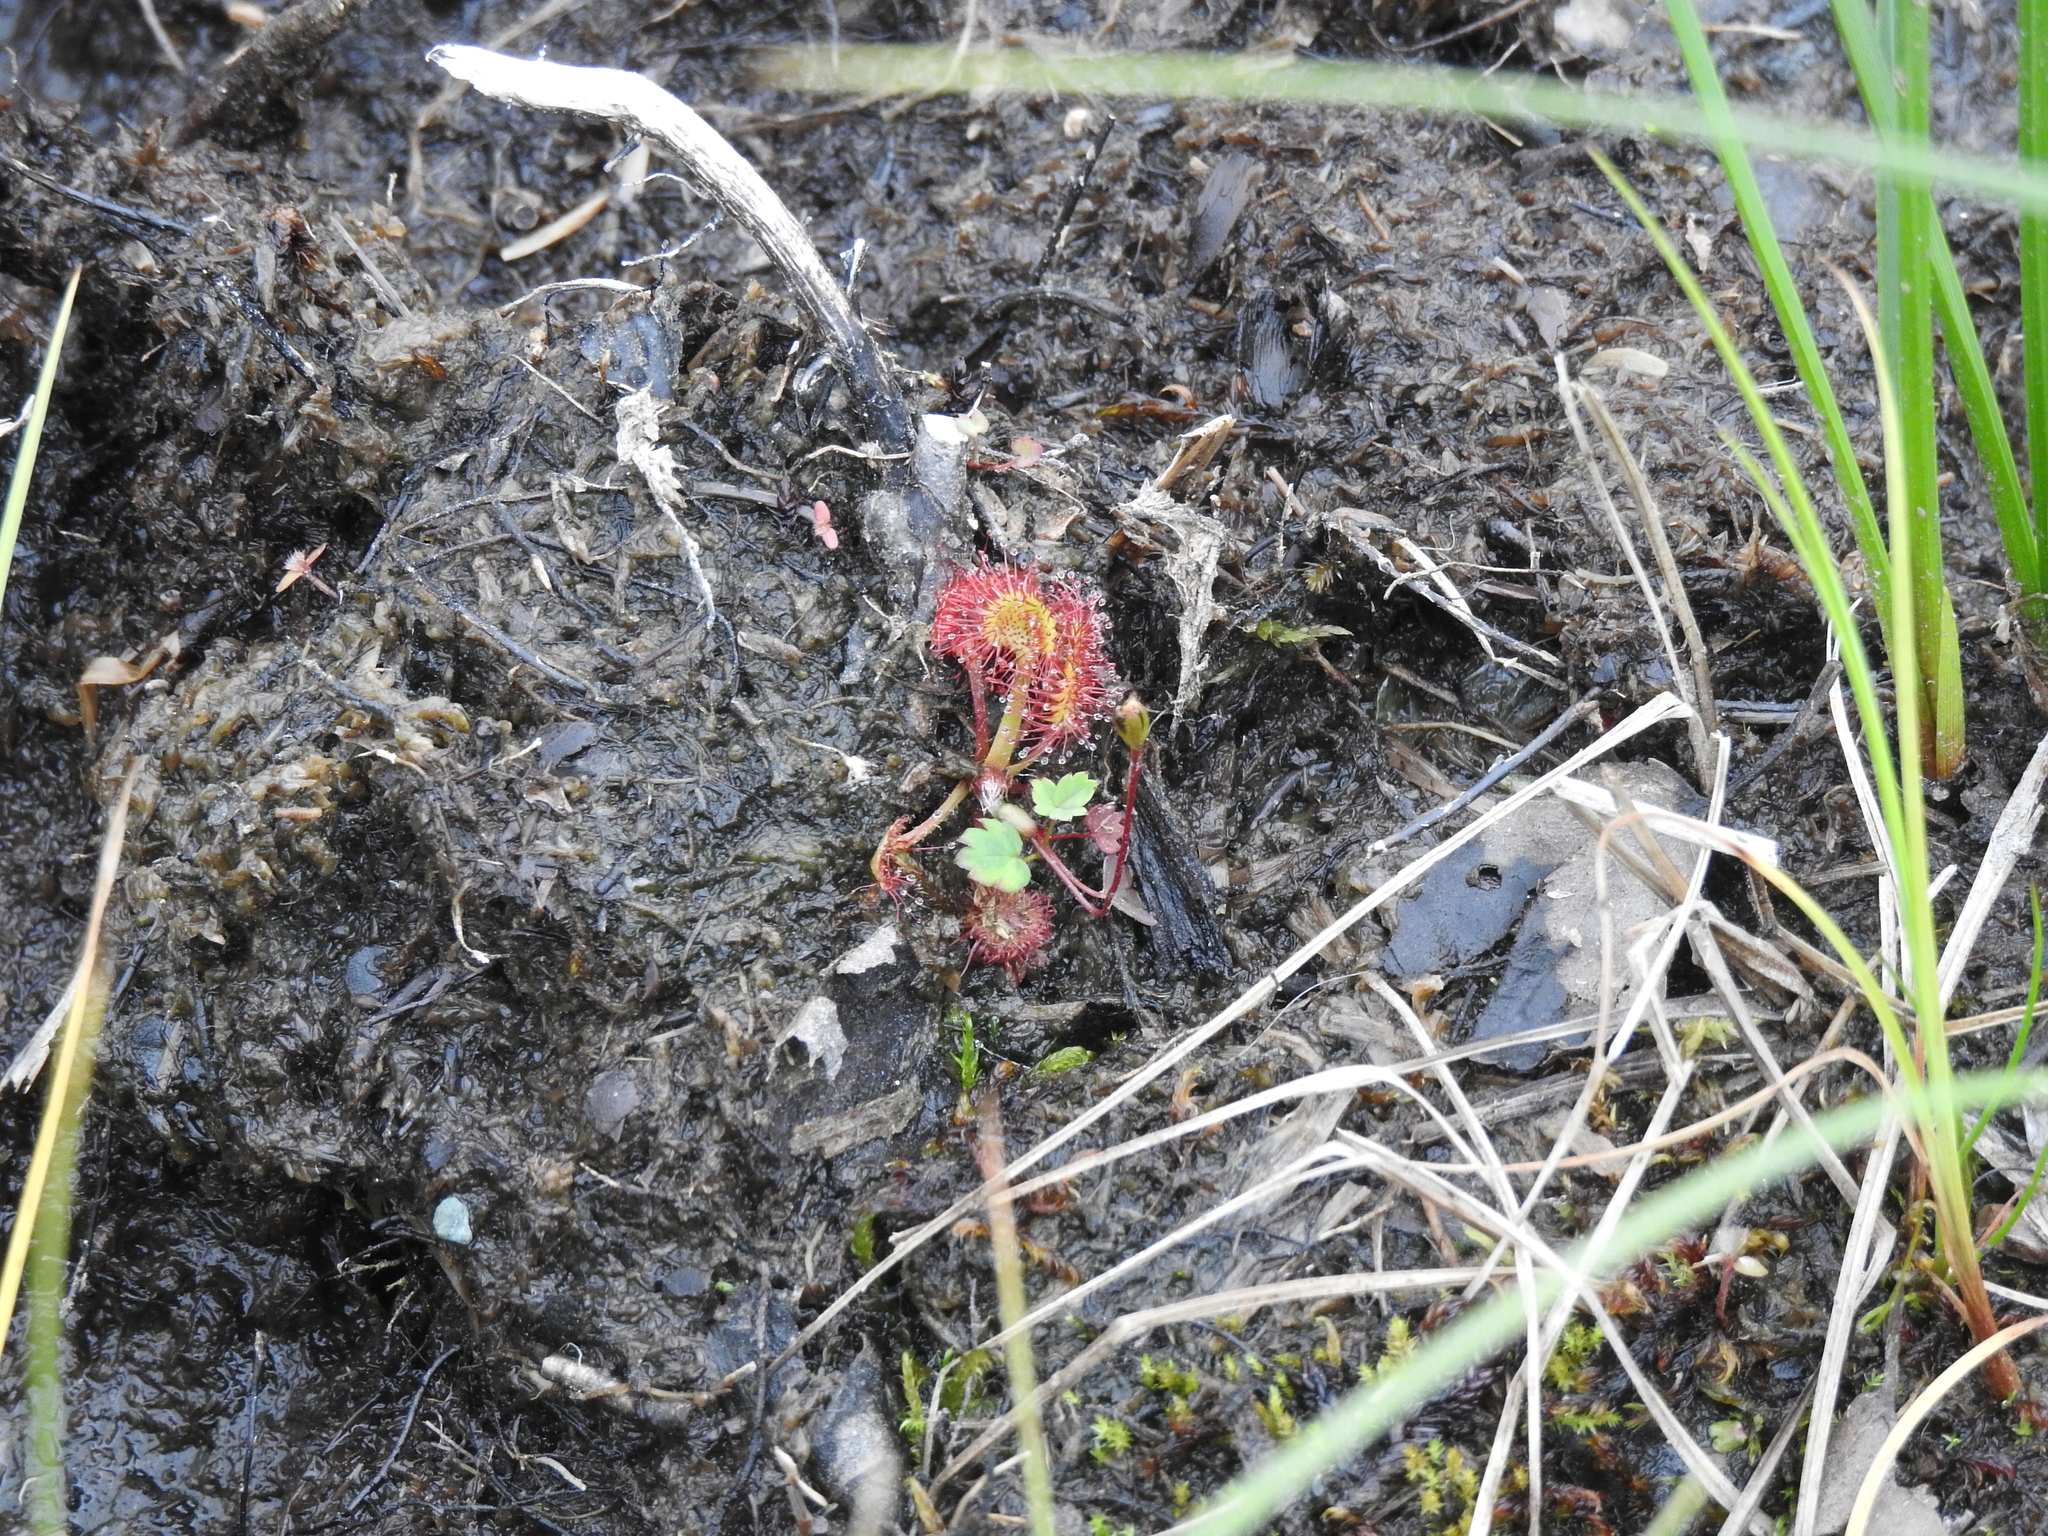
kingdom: Plantae
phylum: Tracheophyta
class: Magnoliopsida
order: Caryophyllales
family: Droseraceae
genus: Drosera
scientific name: Drosera rotundifolia
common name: Round-leaved sundew
